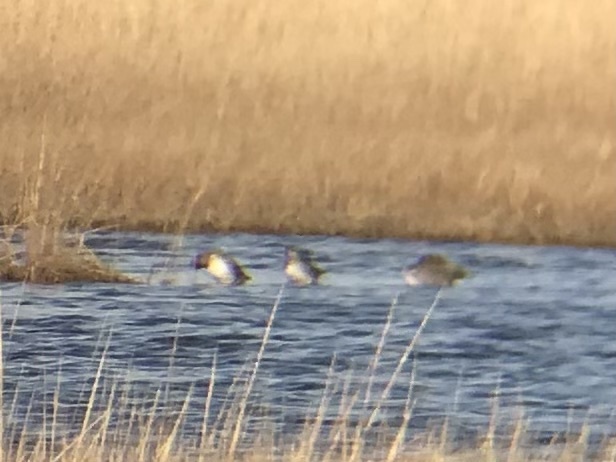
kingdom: Animalia
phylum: Chordata
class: Aves
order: Anseriformes
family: Anatidae
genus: Anas
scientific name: Anas crecca
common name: Eurasian teal
